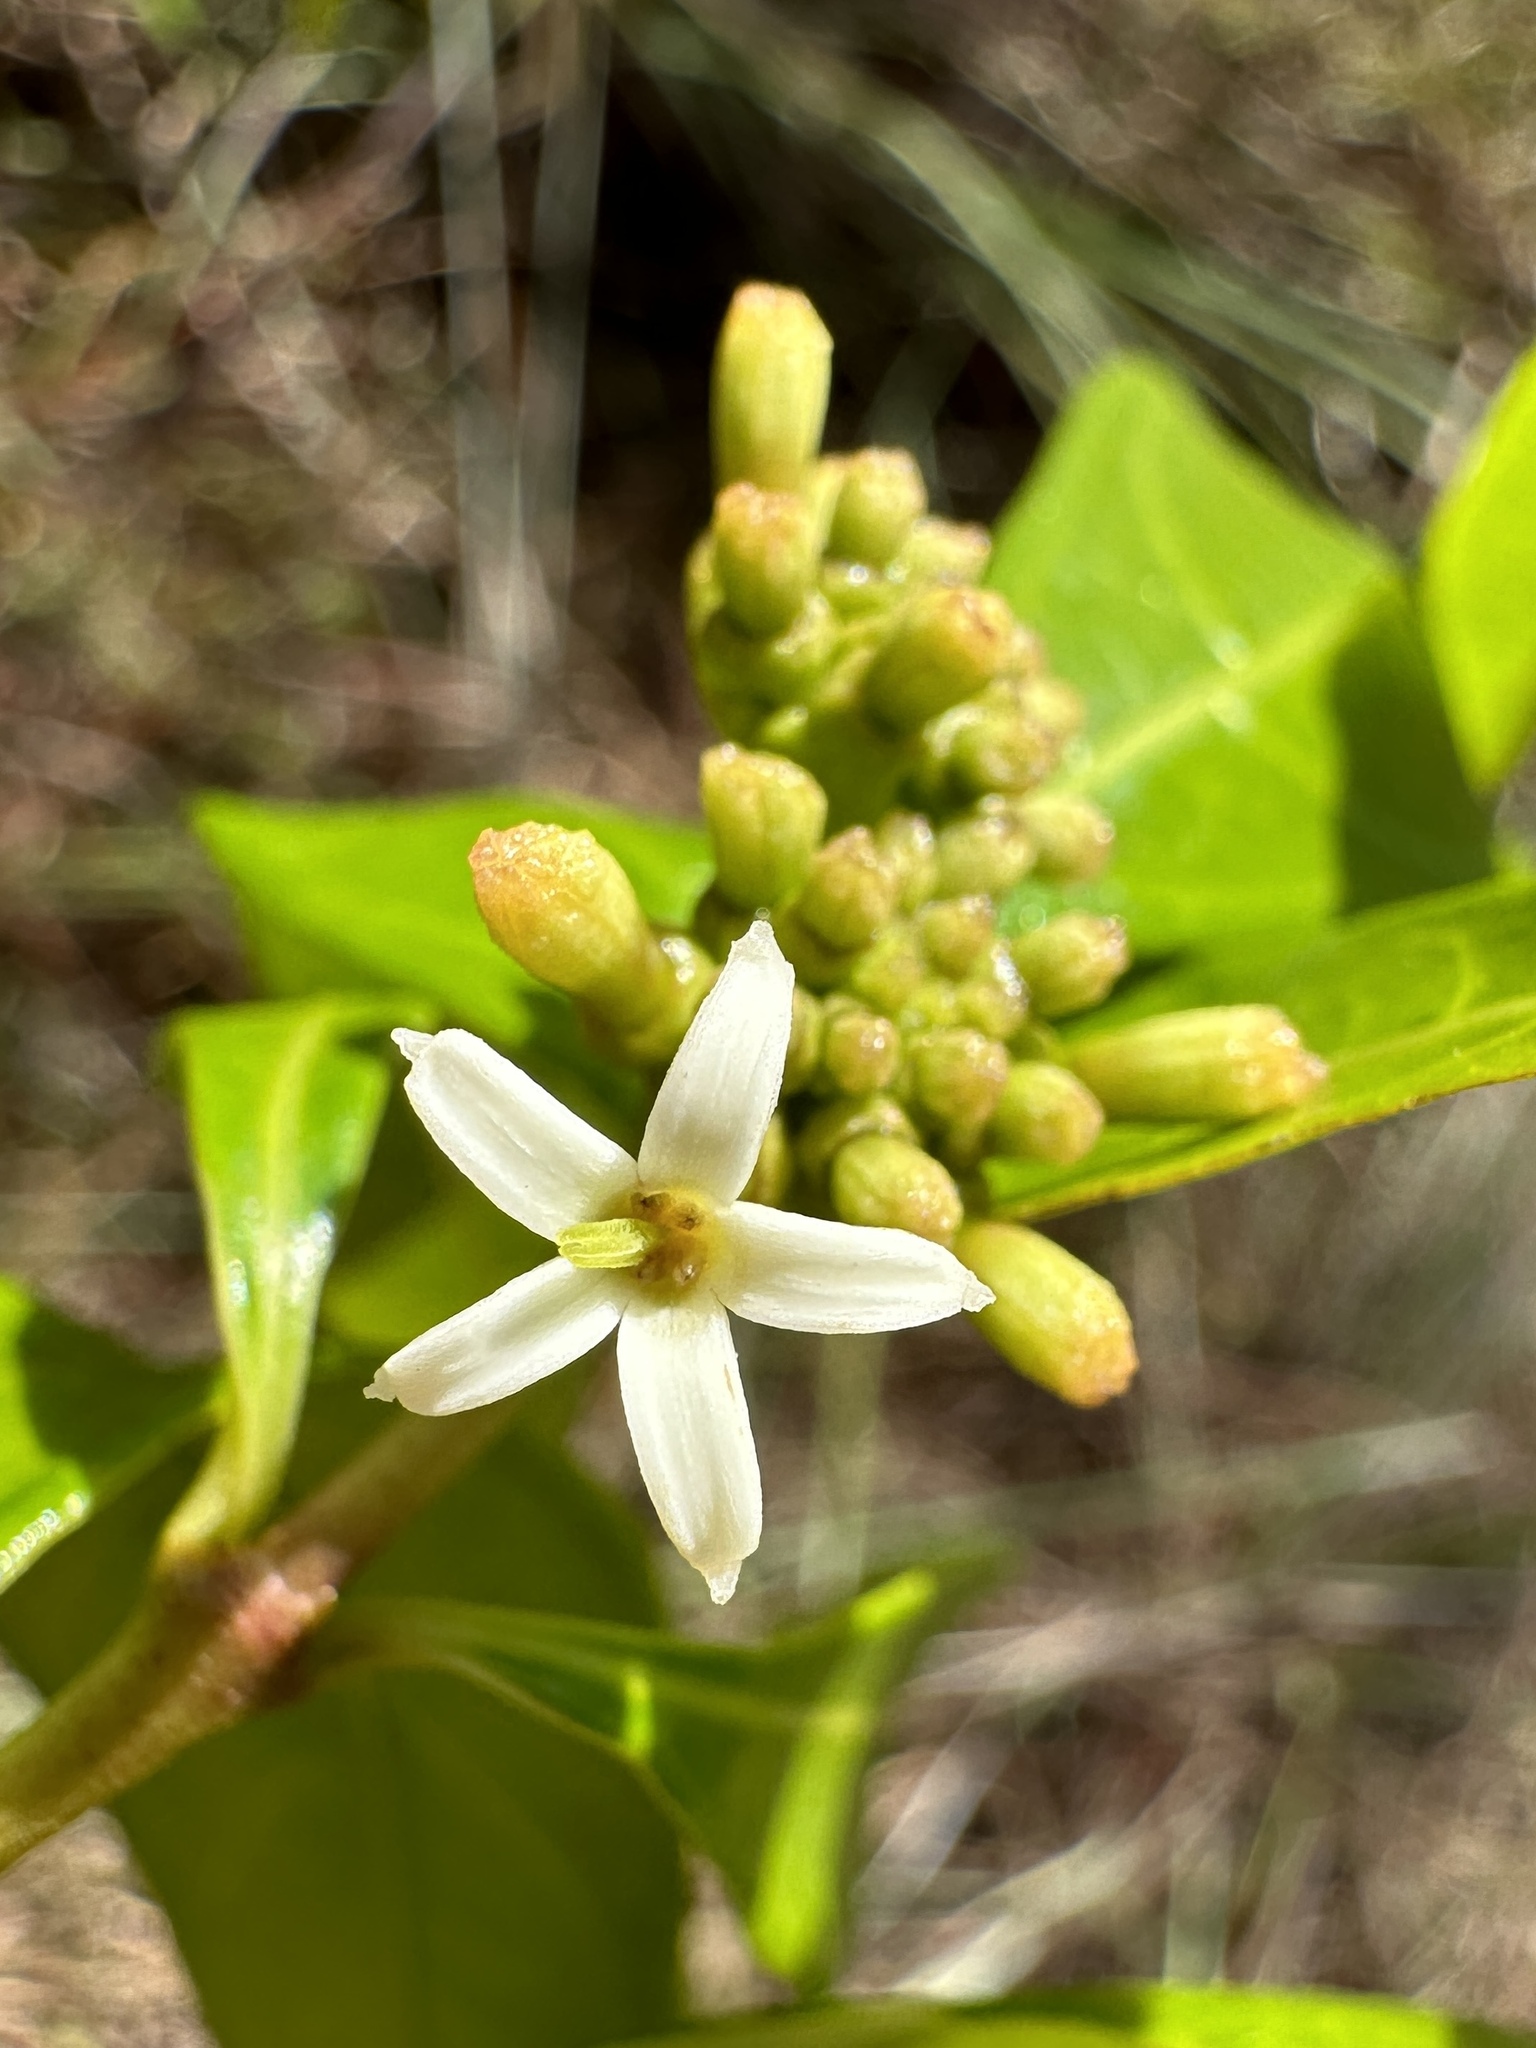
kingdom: Plantae
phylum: Tracheophyta
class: Magnoliopsida
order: Gentianales
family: Rubiaceae
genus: Morinda
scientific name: Morinda royoc
